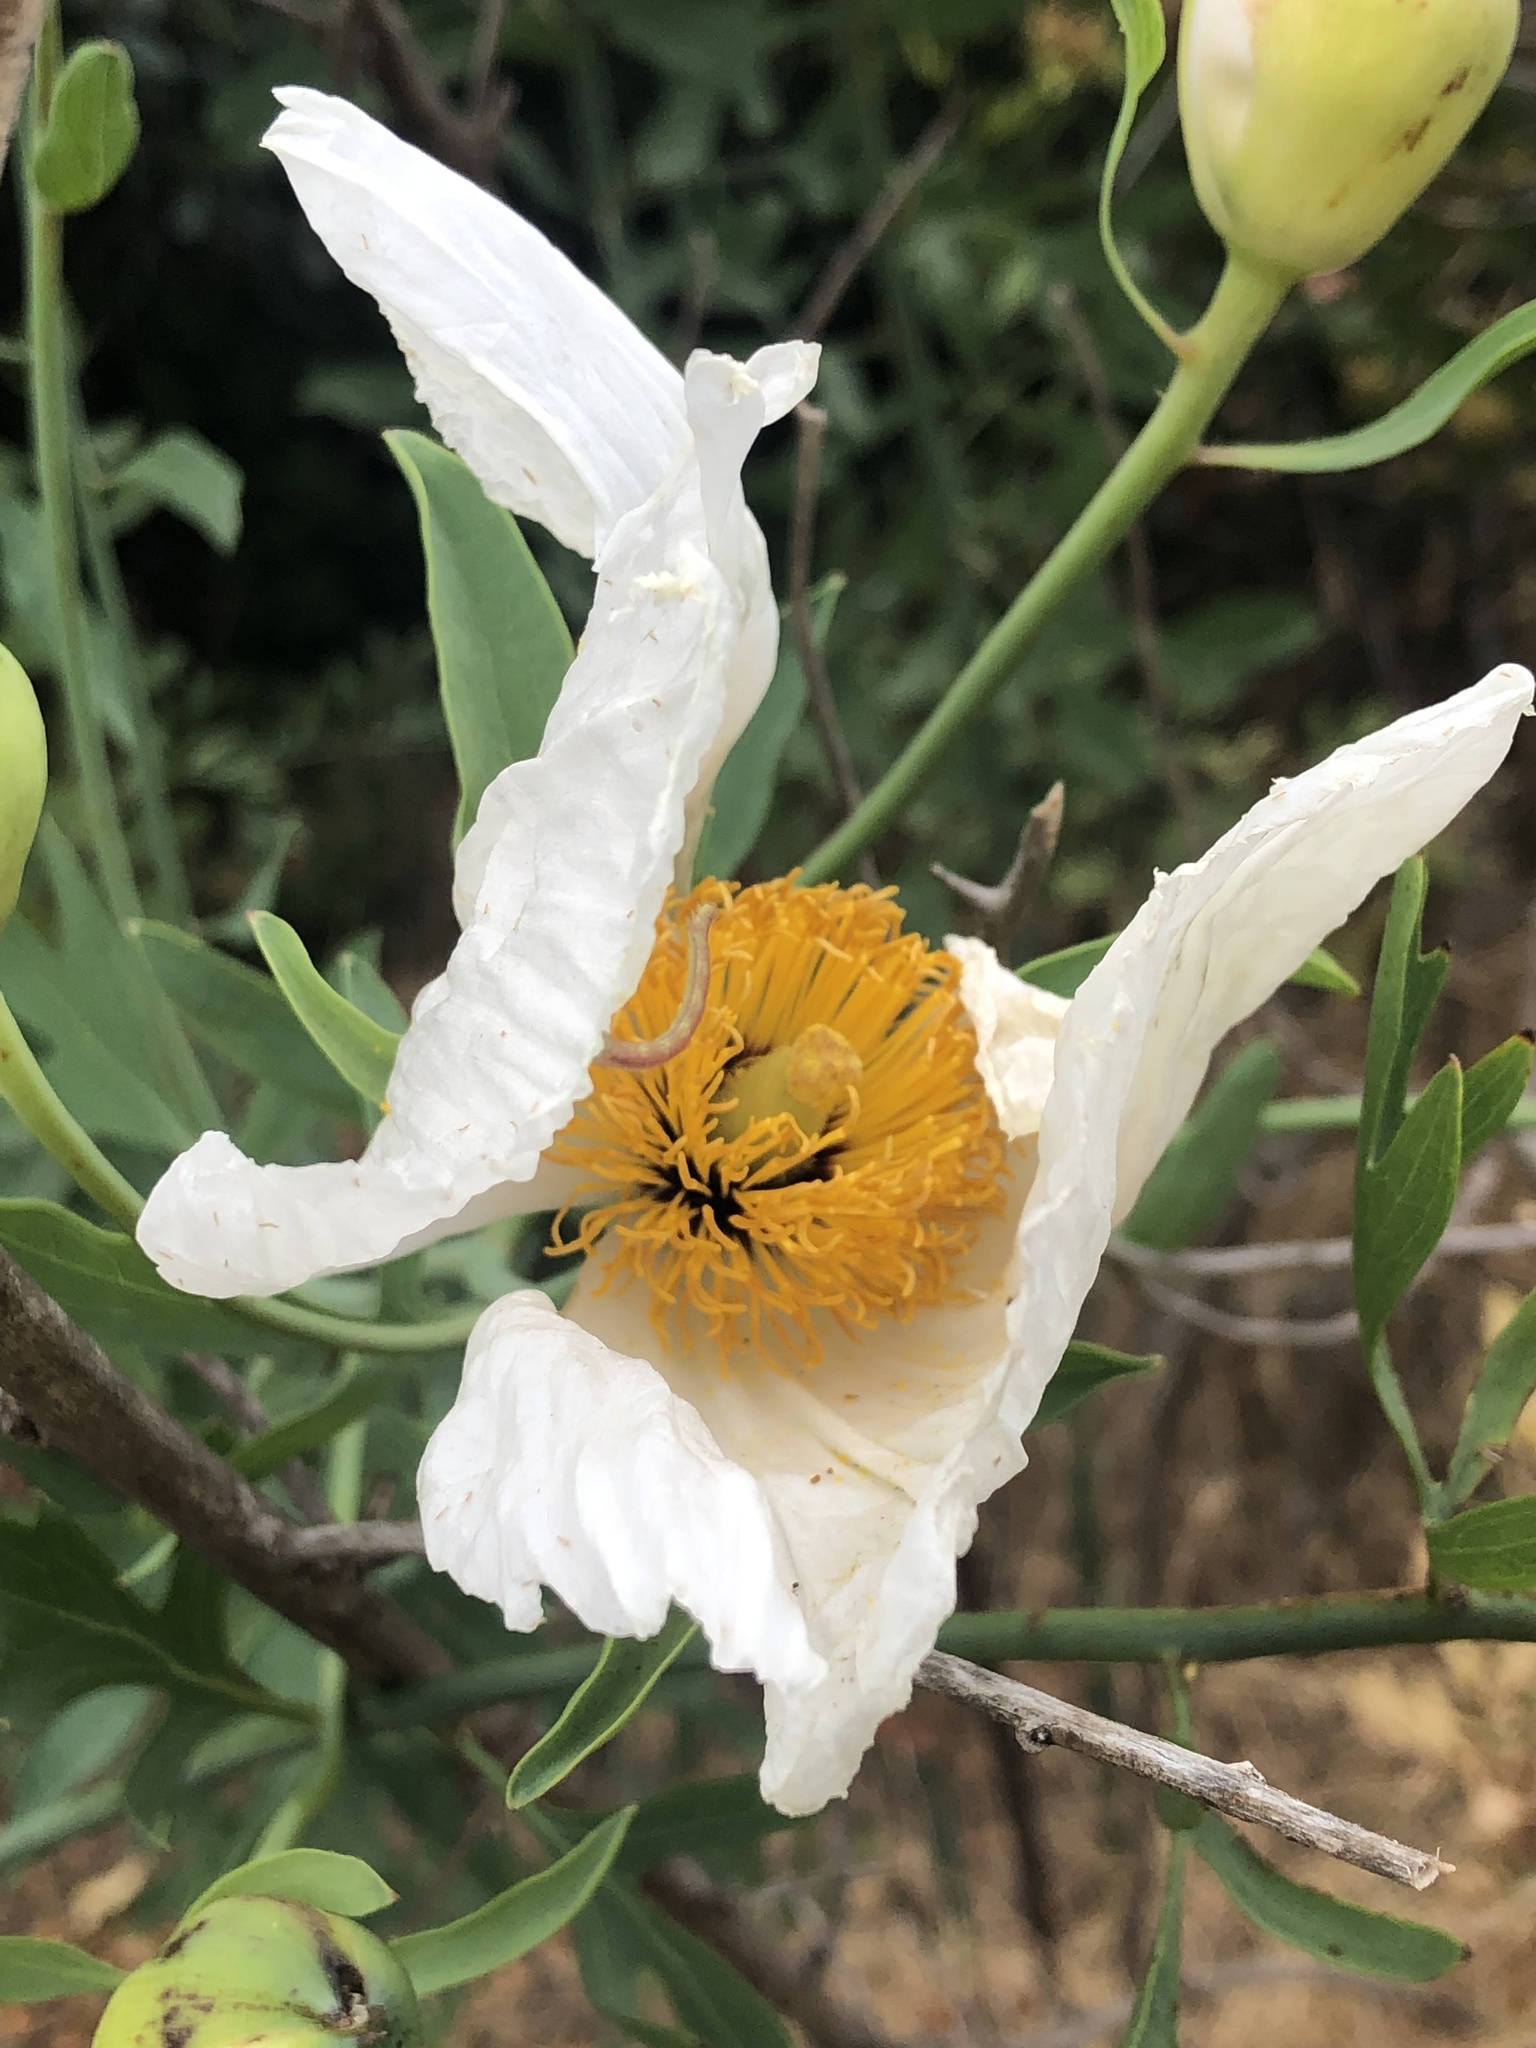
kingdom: Plantae
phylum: Tracheophyta
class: Magnoliopsida
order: Ranunculales
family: Papaveraceae
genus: Romneya
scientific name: Romneya coulteri
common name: California tree-poppy
